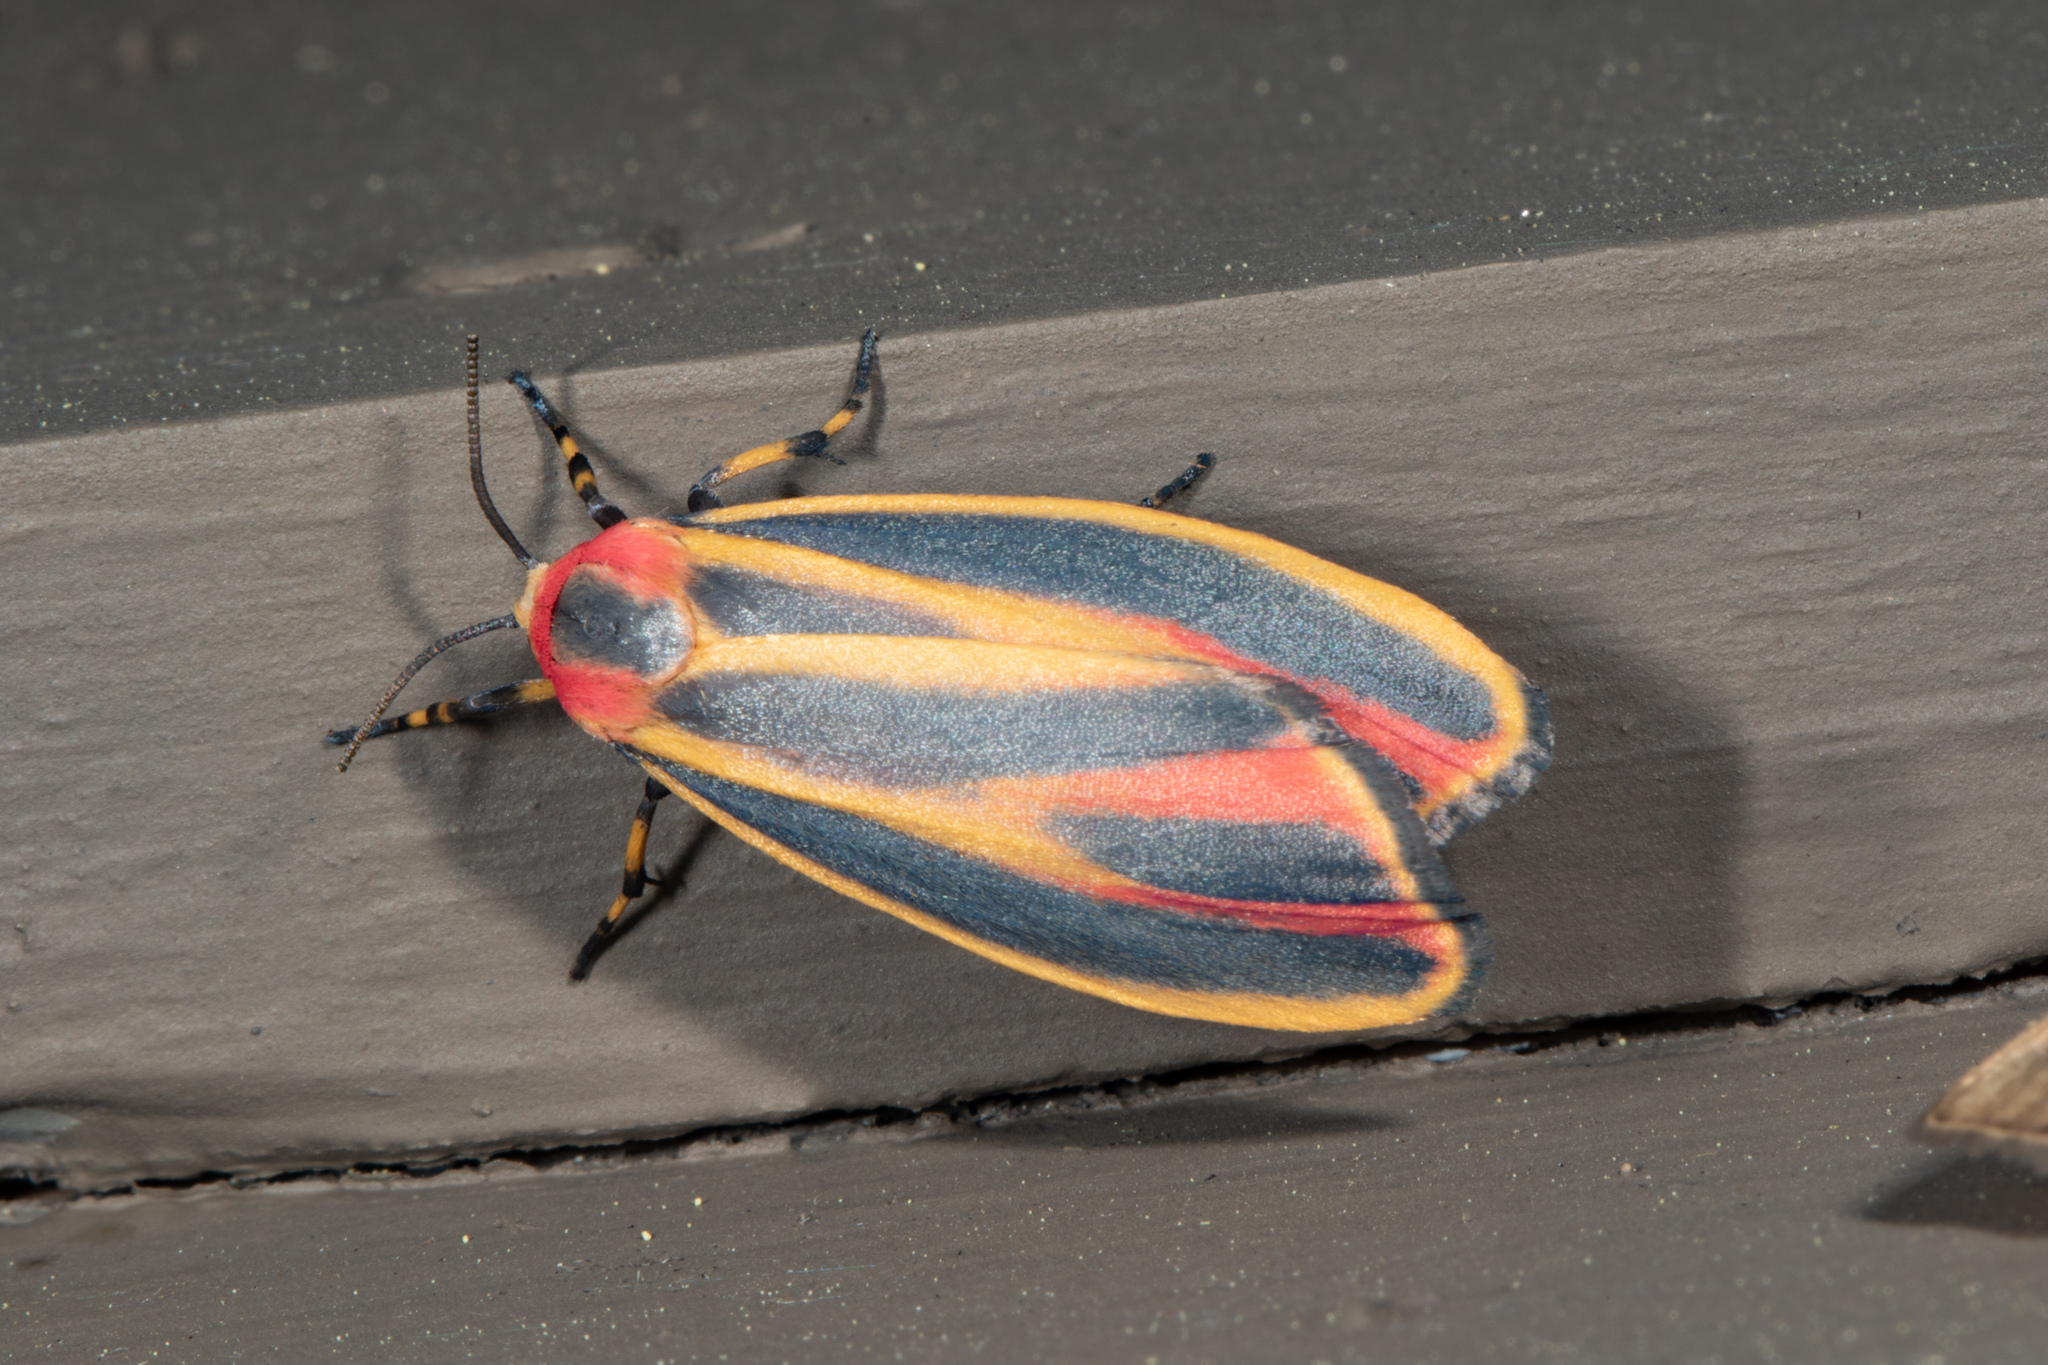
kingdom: Animalia
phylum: Arthropoda
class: Insecta
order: Lepidoptera
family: Erebidae
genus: Hypoprepia
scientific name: Hypoprepia fucosa
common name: Painted lichen moth
